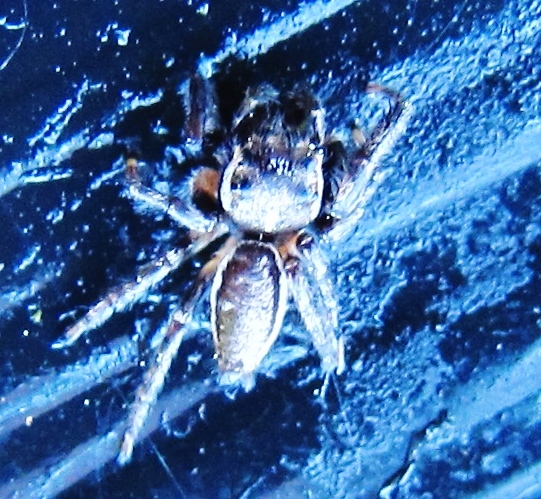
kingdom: Animalia
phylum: Arthropoda
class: Arachnida
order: Araneae
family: Salticidae
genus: Eris
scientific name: Eris militaris
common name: Bronze jumper
